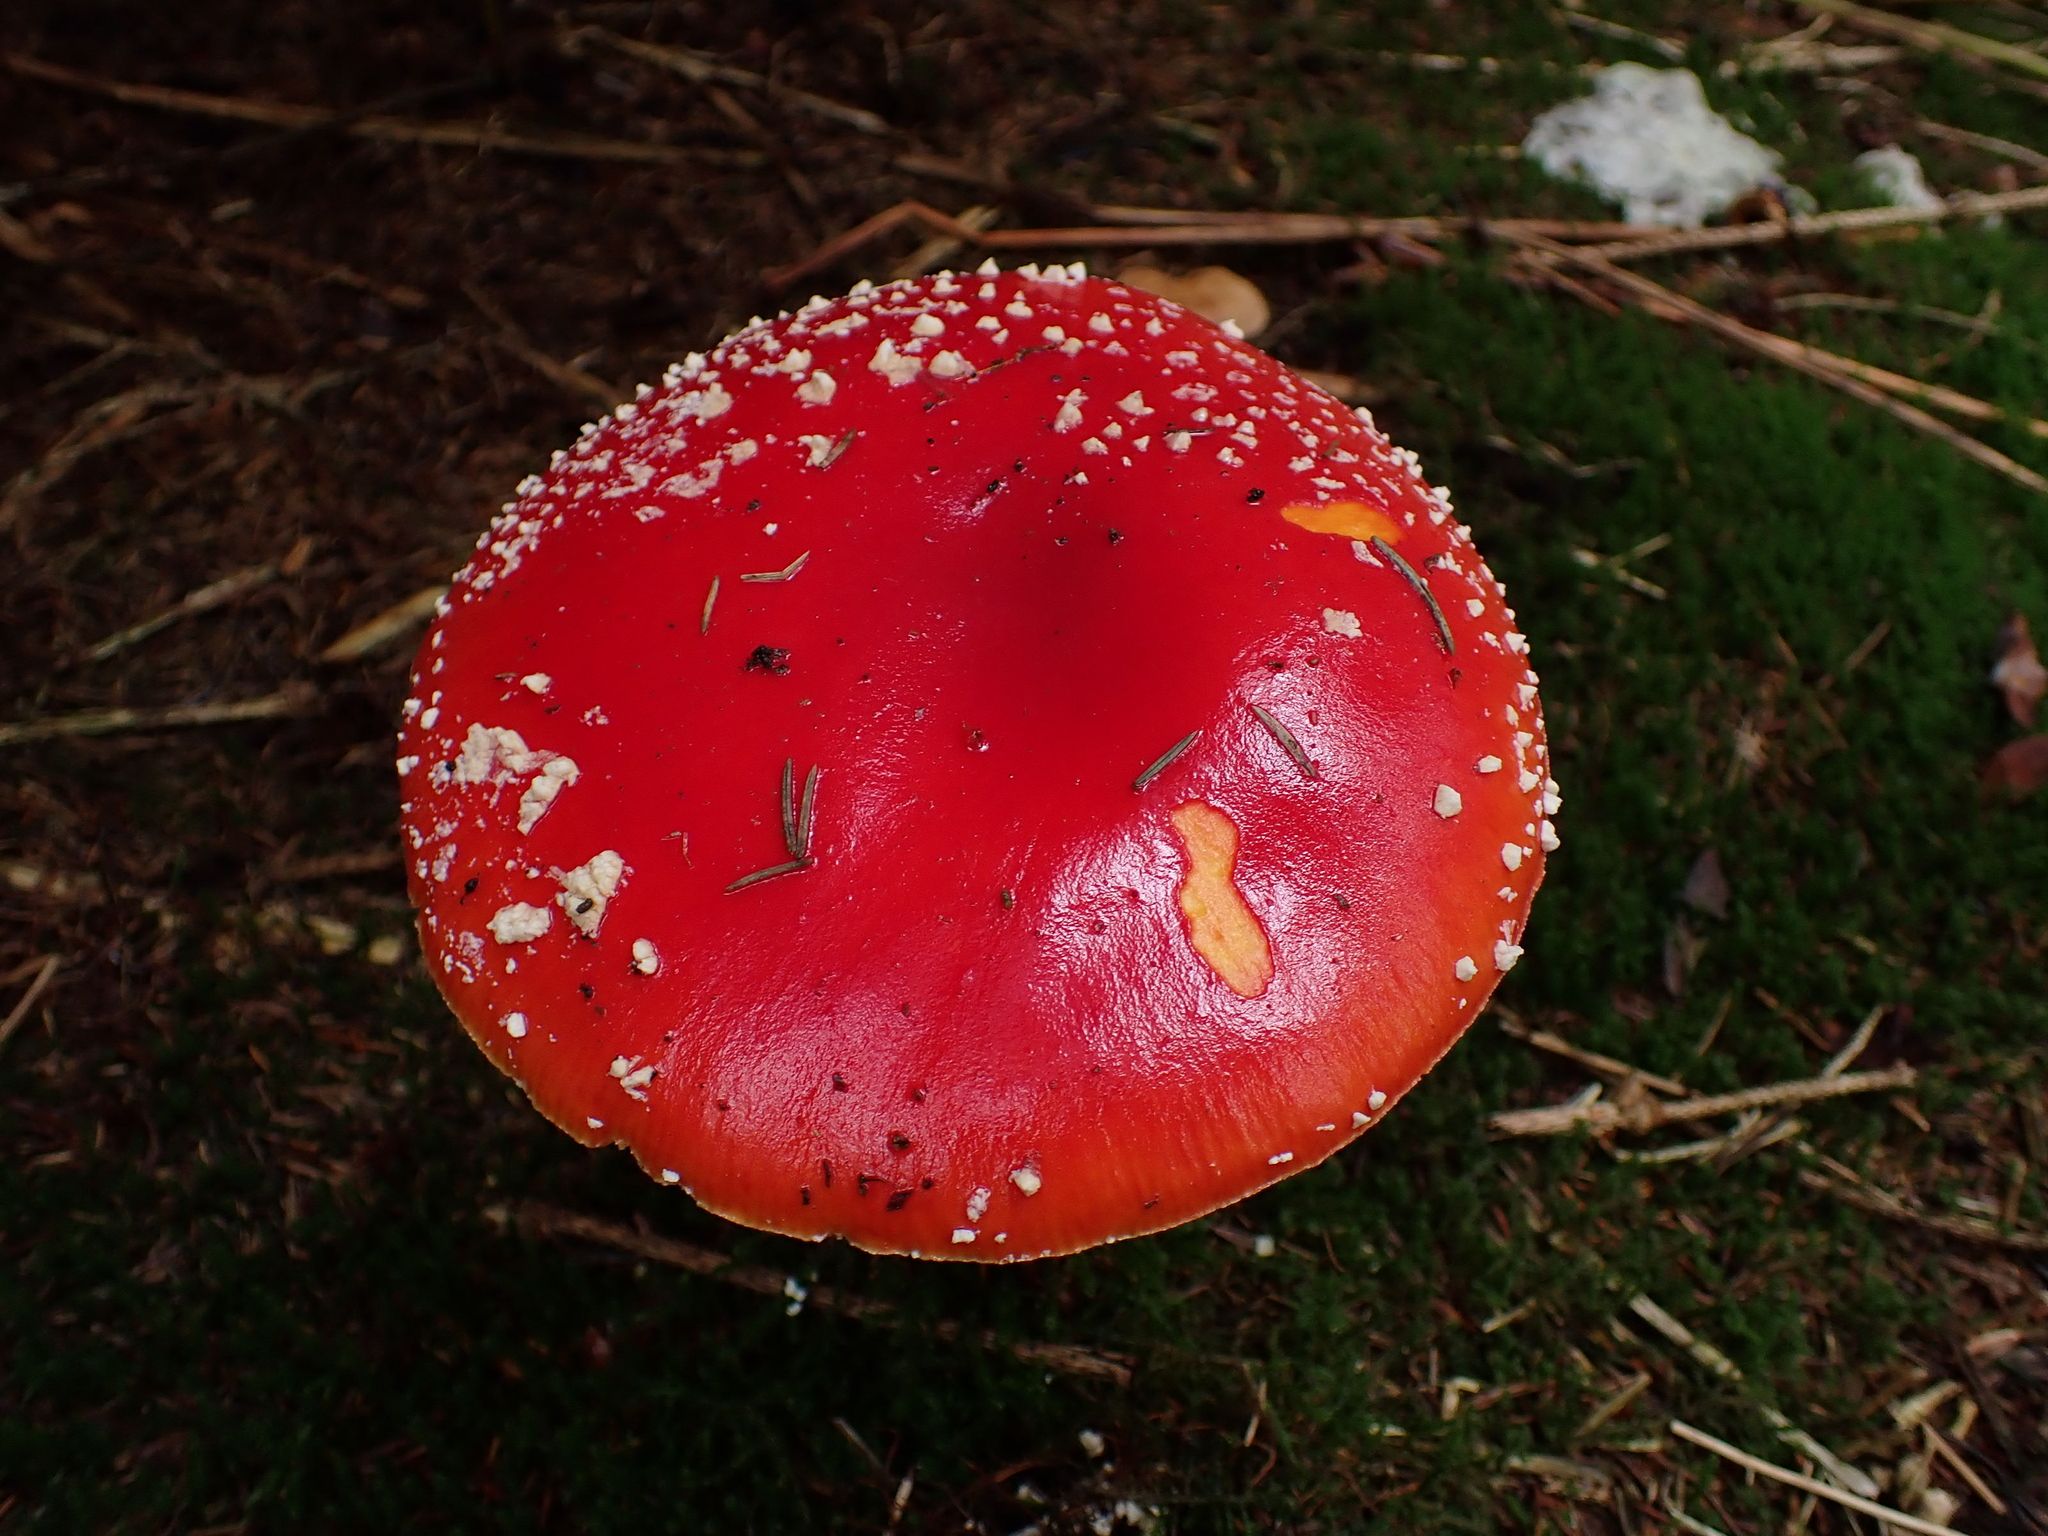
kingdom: Fungi
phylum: Basidiomycota
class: Agaricomycetes
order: Agaricales
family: Amanitaceae
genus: Amanita
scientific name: Amanita muscaria
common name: Fly agaric
